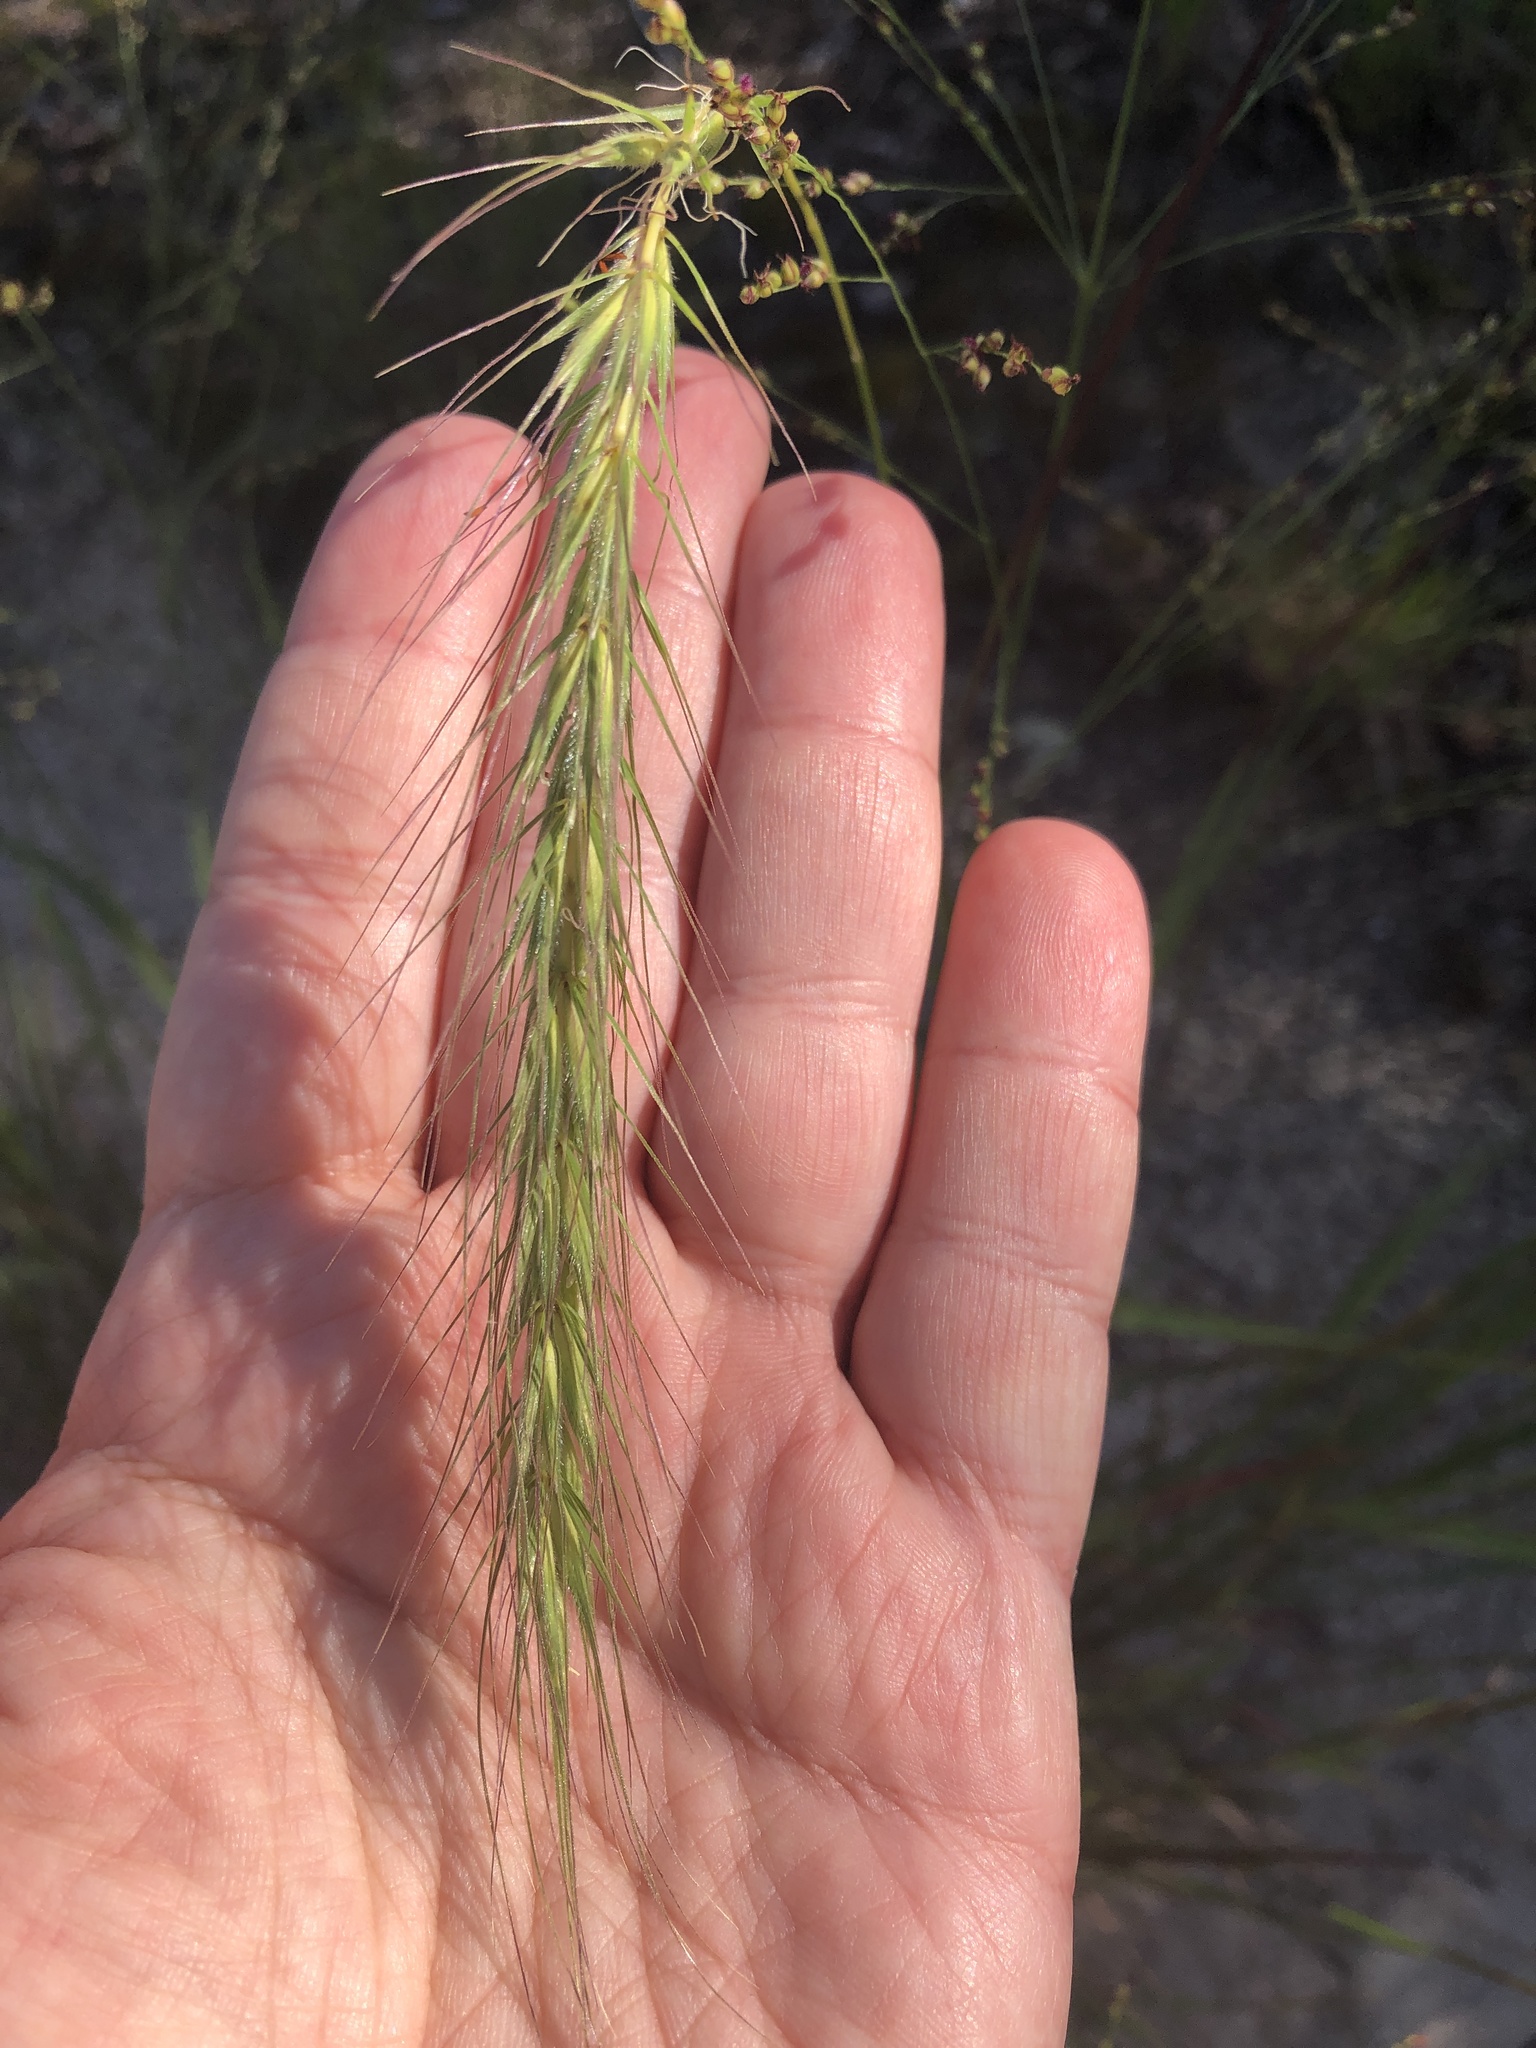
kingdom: Plantae
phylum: Tracheophyta
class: Liliopsida
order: Poales
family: Poaceae
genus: Elymus
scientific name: Elymus canadensis
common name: Canada wild rye
